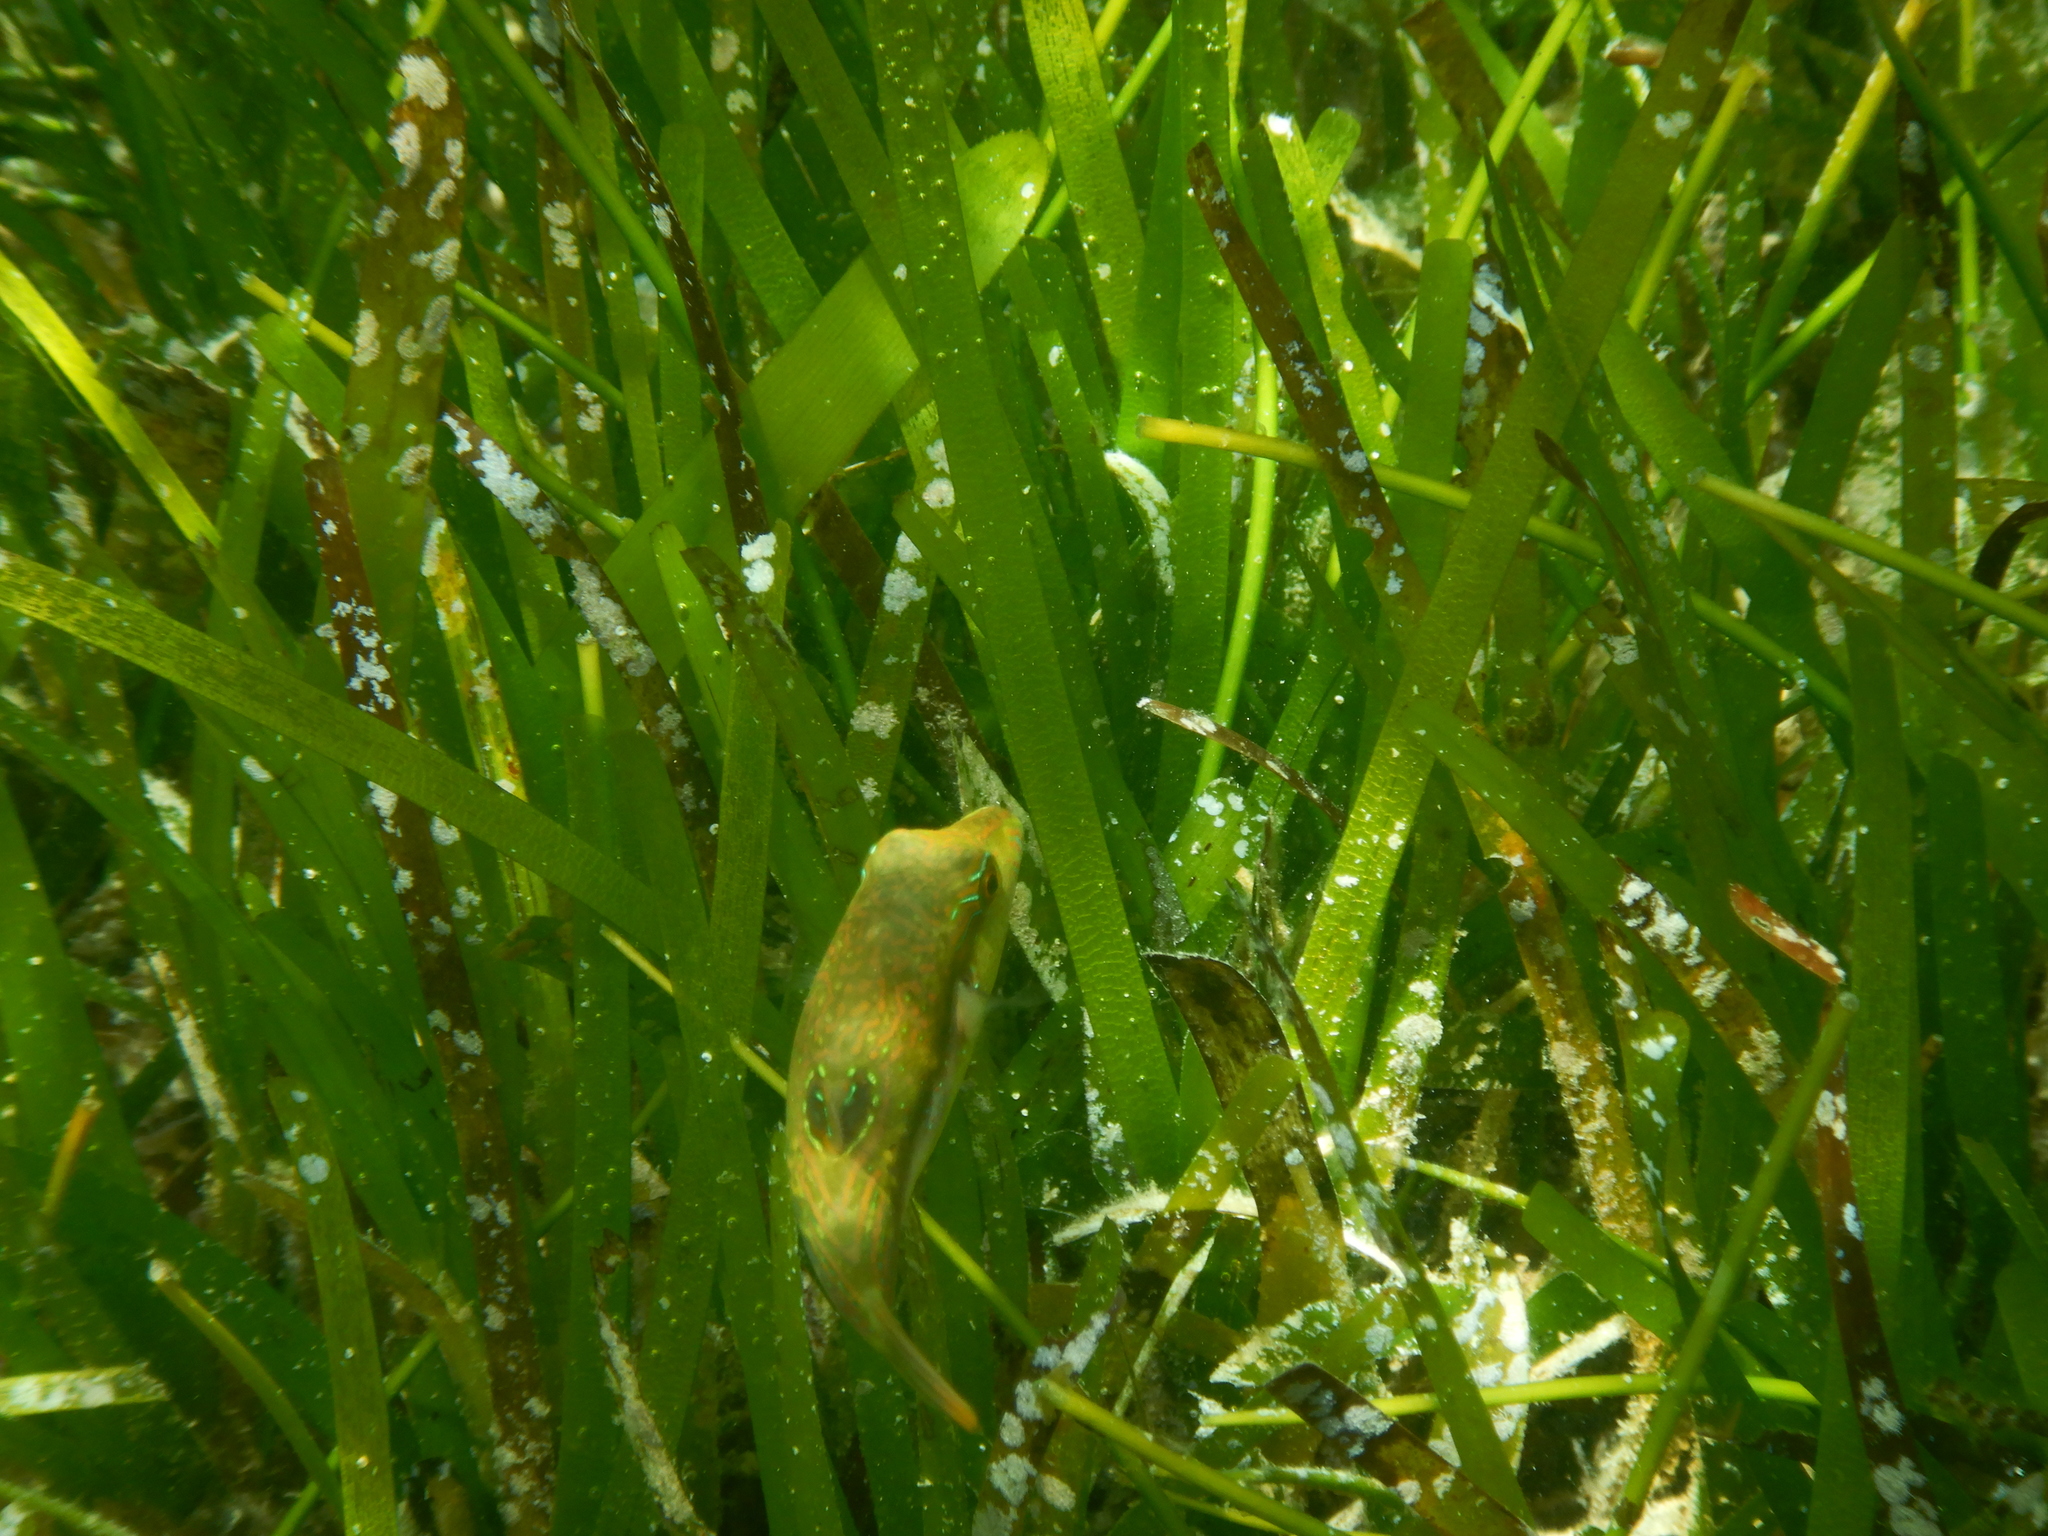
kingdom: Animalia
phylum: Chordata
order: Tetraodontiformes
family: Tetraodontidae
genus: Canthigaster
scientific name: Canthigaster bennetti
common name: Bennett's pufferfish
